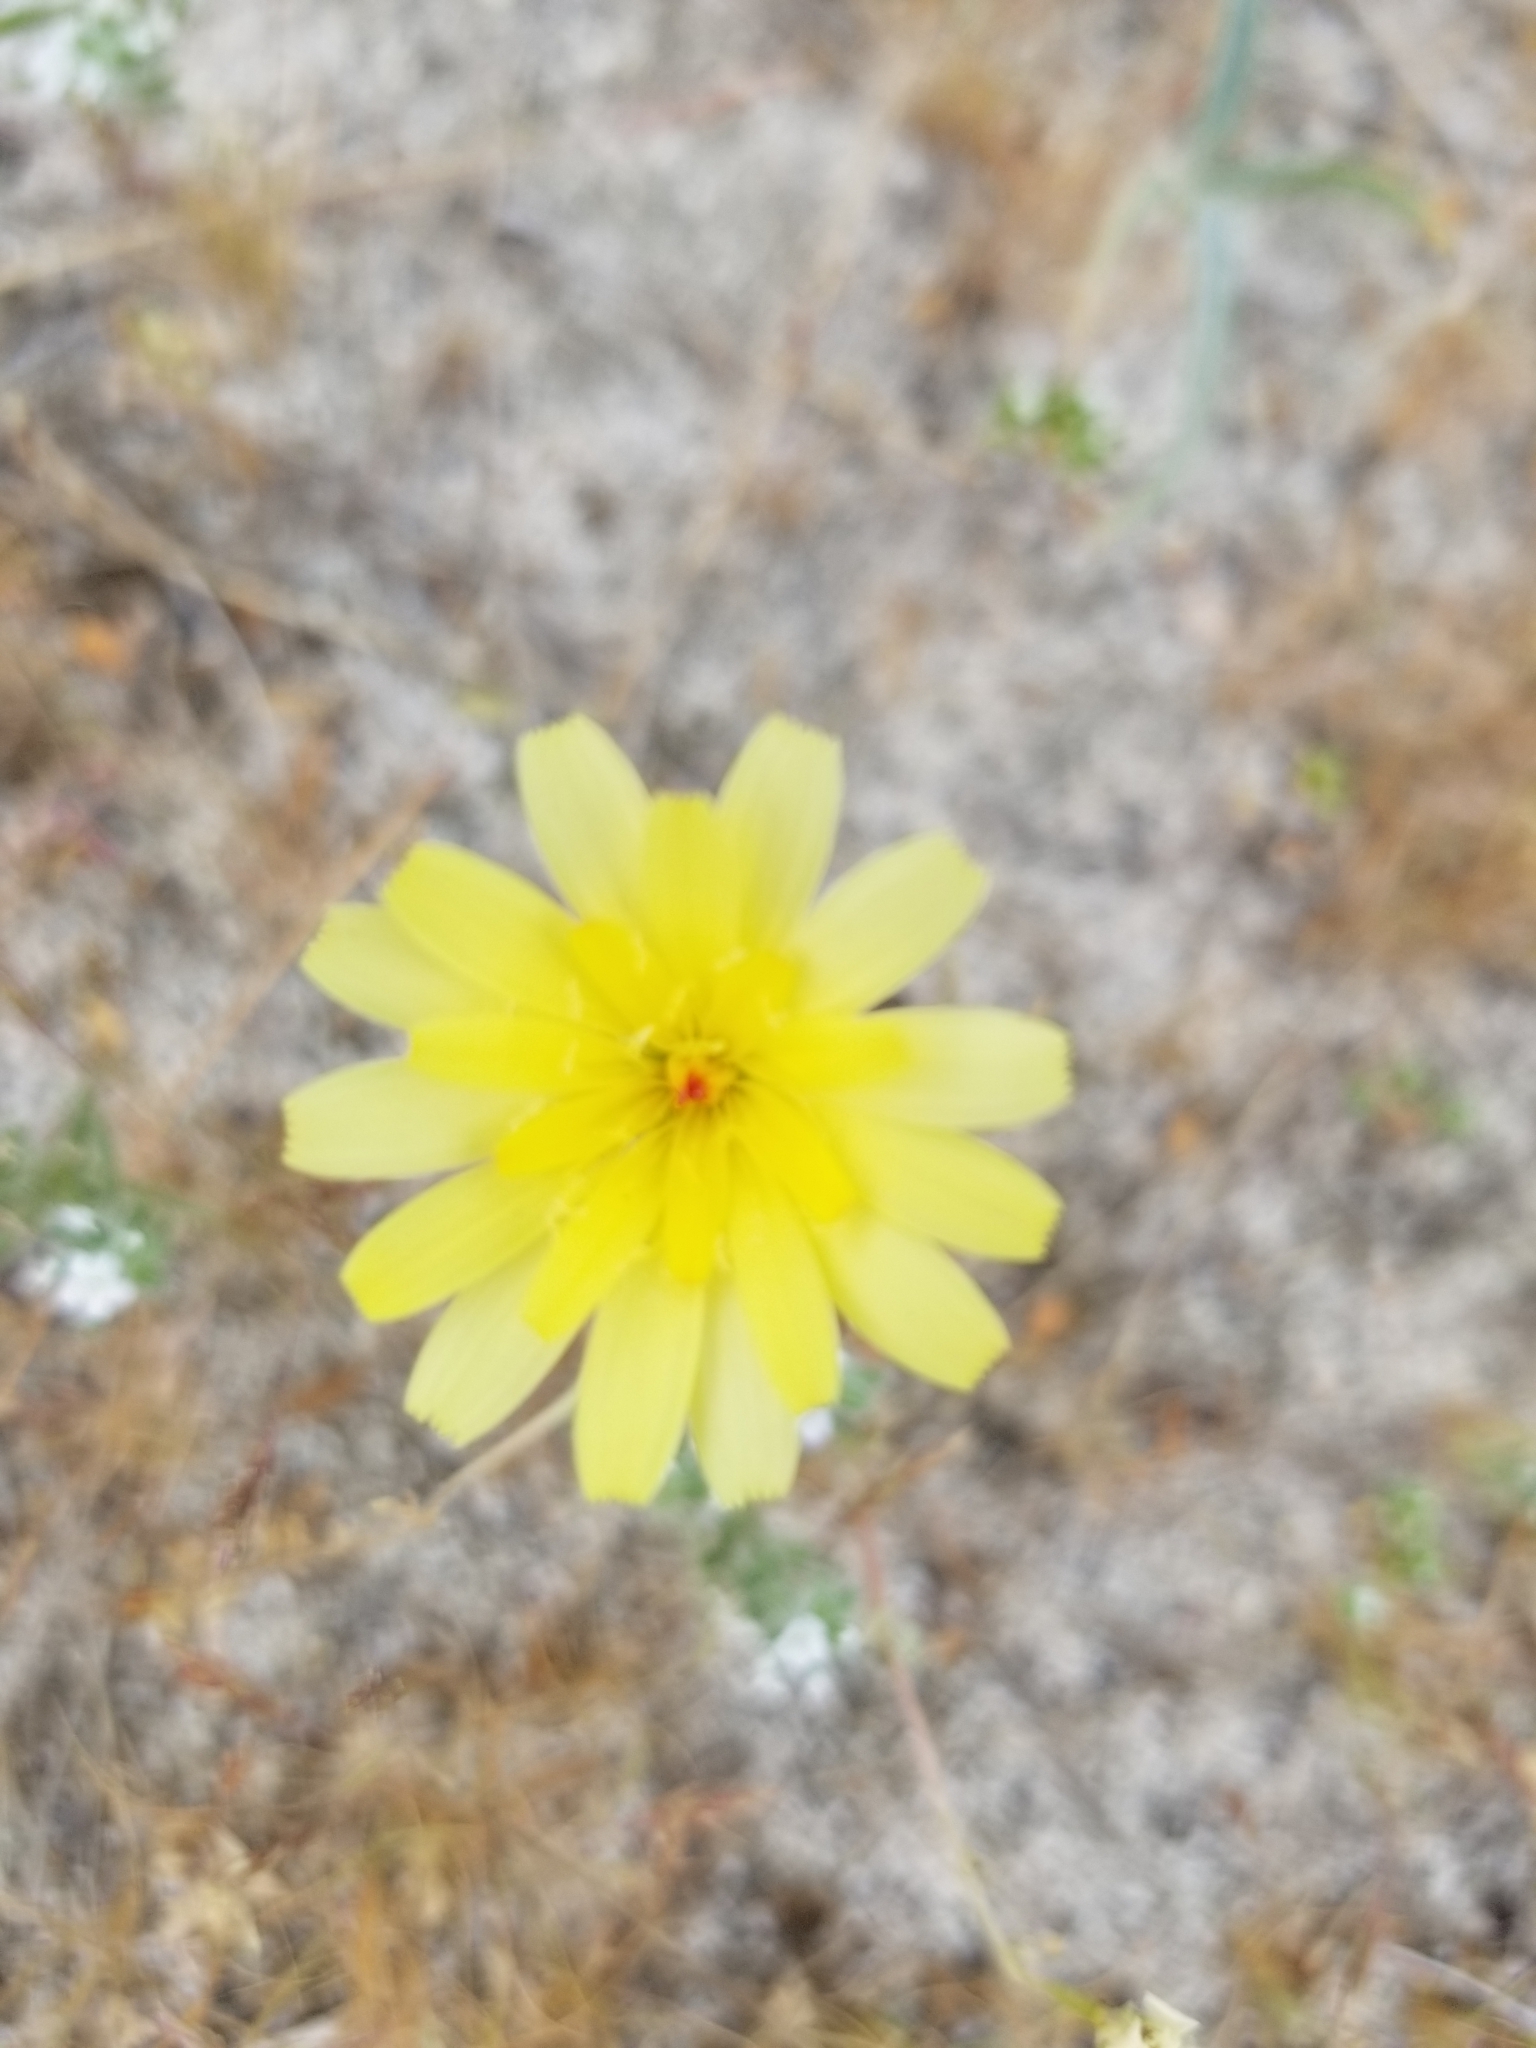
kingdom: Plantae
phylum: Tracheophyta
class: Magnoliopsida
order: Asterales
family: Asteraceae
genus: Malacothrix
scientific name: Malacothrix glabrata
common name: Smooth desert-dandelion
